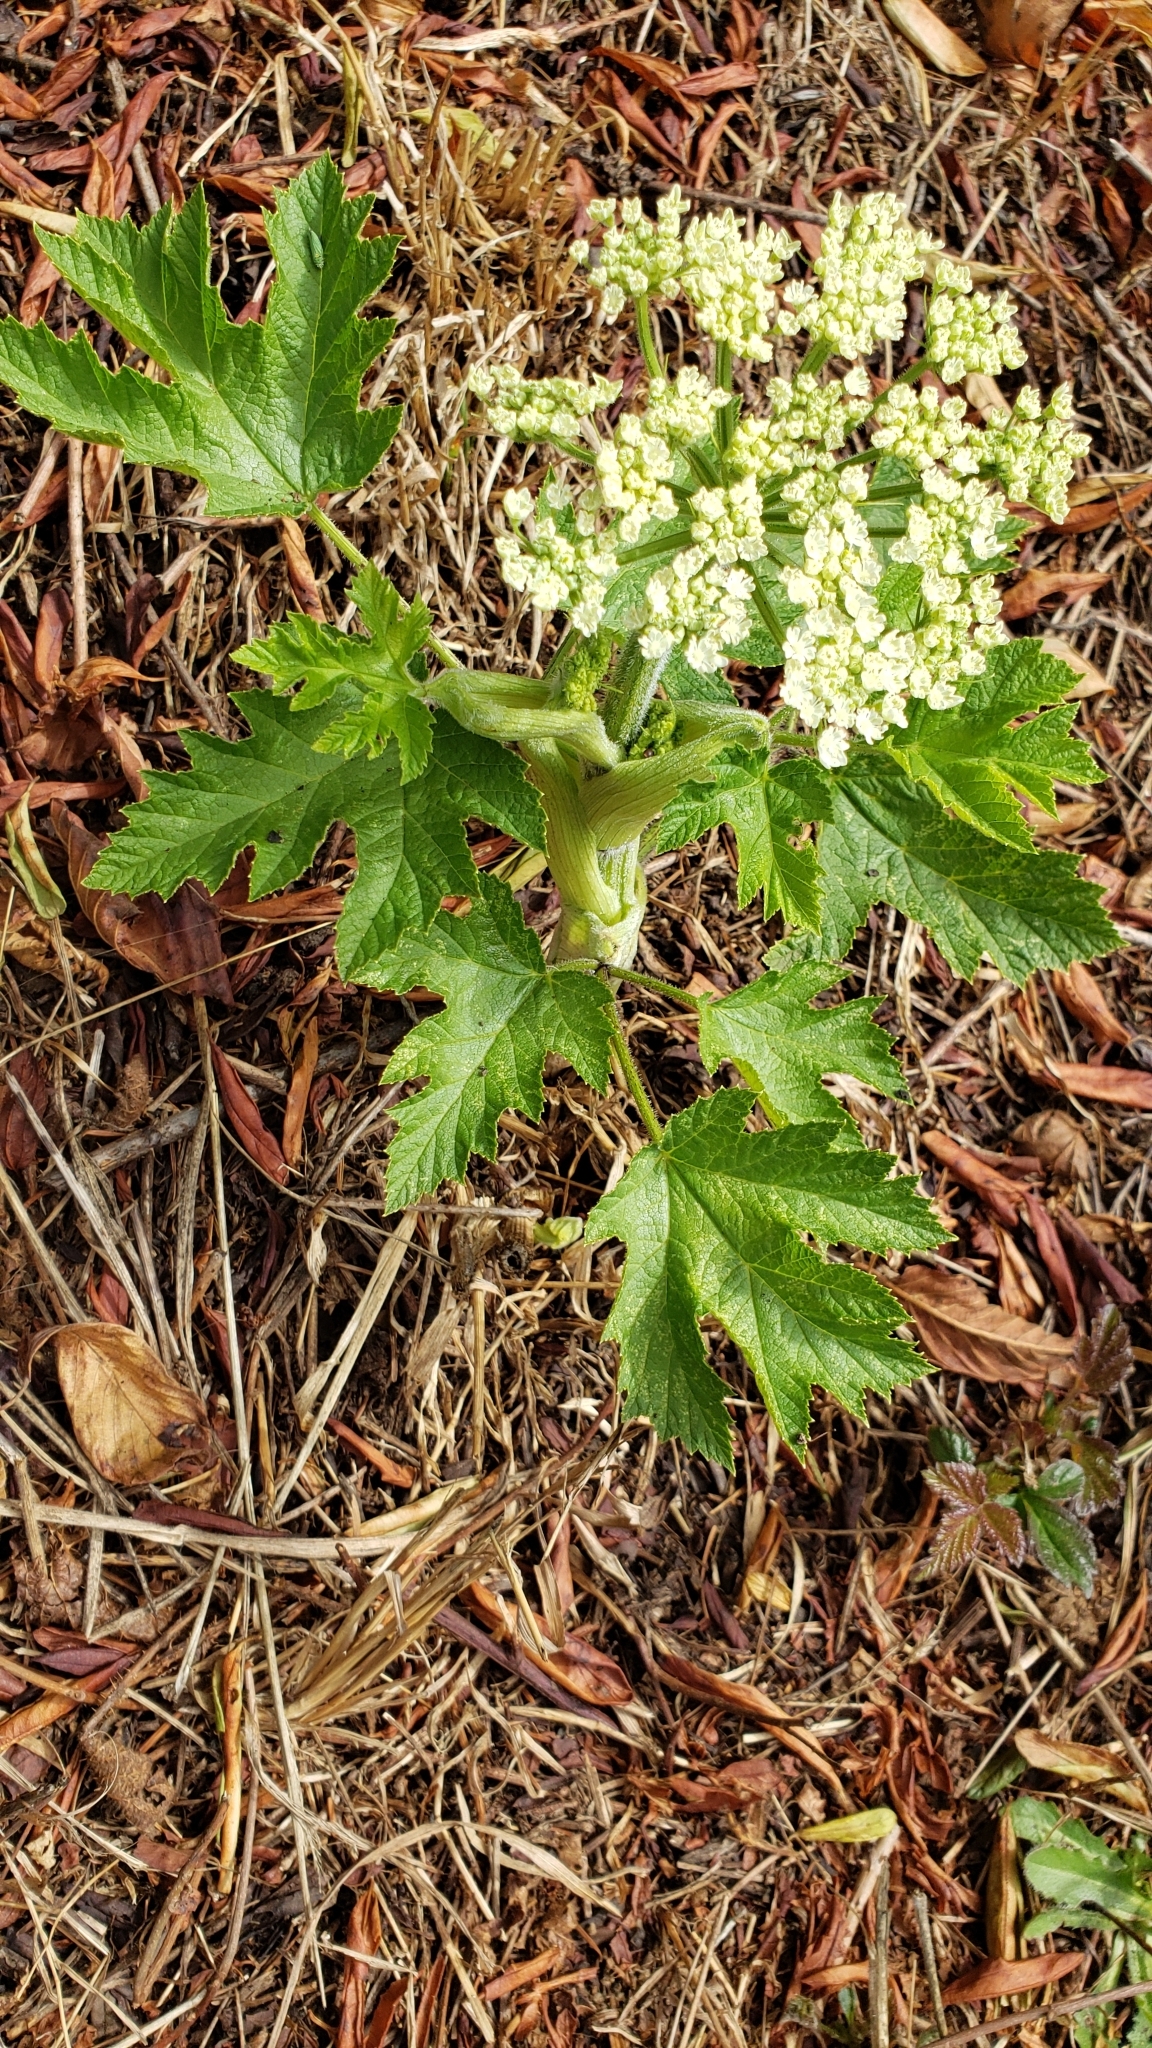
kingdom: Plantae
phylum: Tracheophyta
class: Magnoliopsida
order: Apiales
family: Apiaceae
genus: Heracleum
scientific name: Heracleum maximum
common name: American cow parsnip
